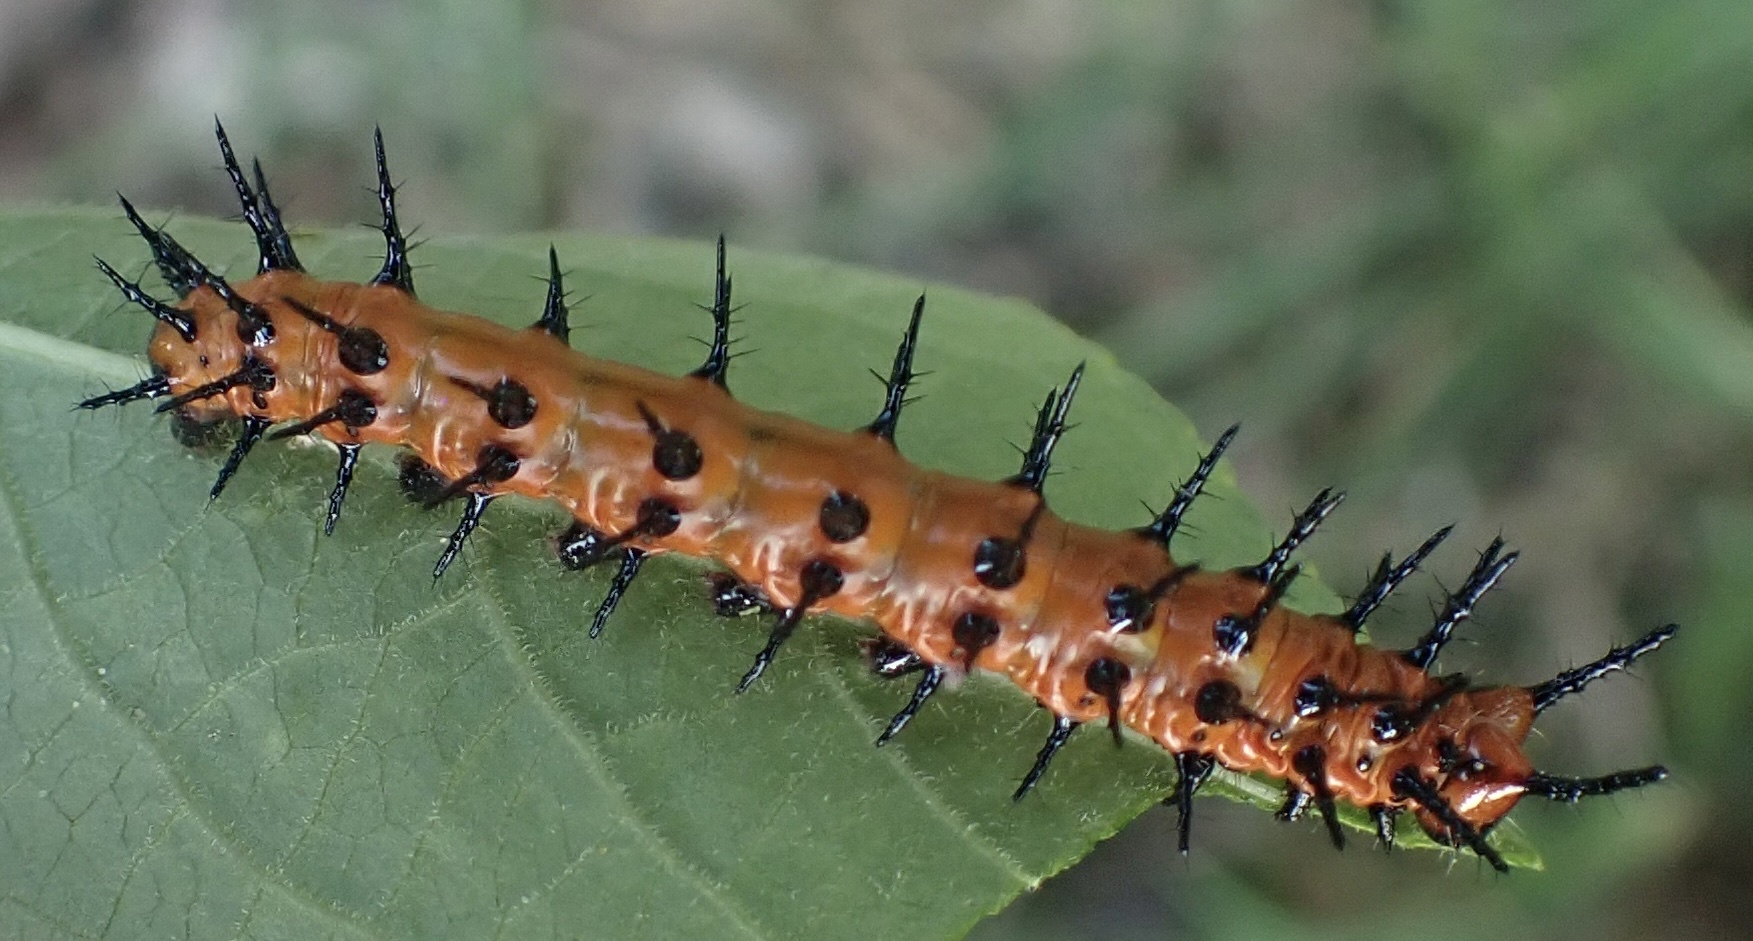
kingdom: Animalia
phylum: Arthropoda
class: Insecta
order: Lepidoptera
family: Nymphalidae
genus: Dione
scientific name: Dione vanillae
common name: Gulf fritillary
